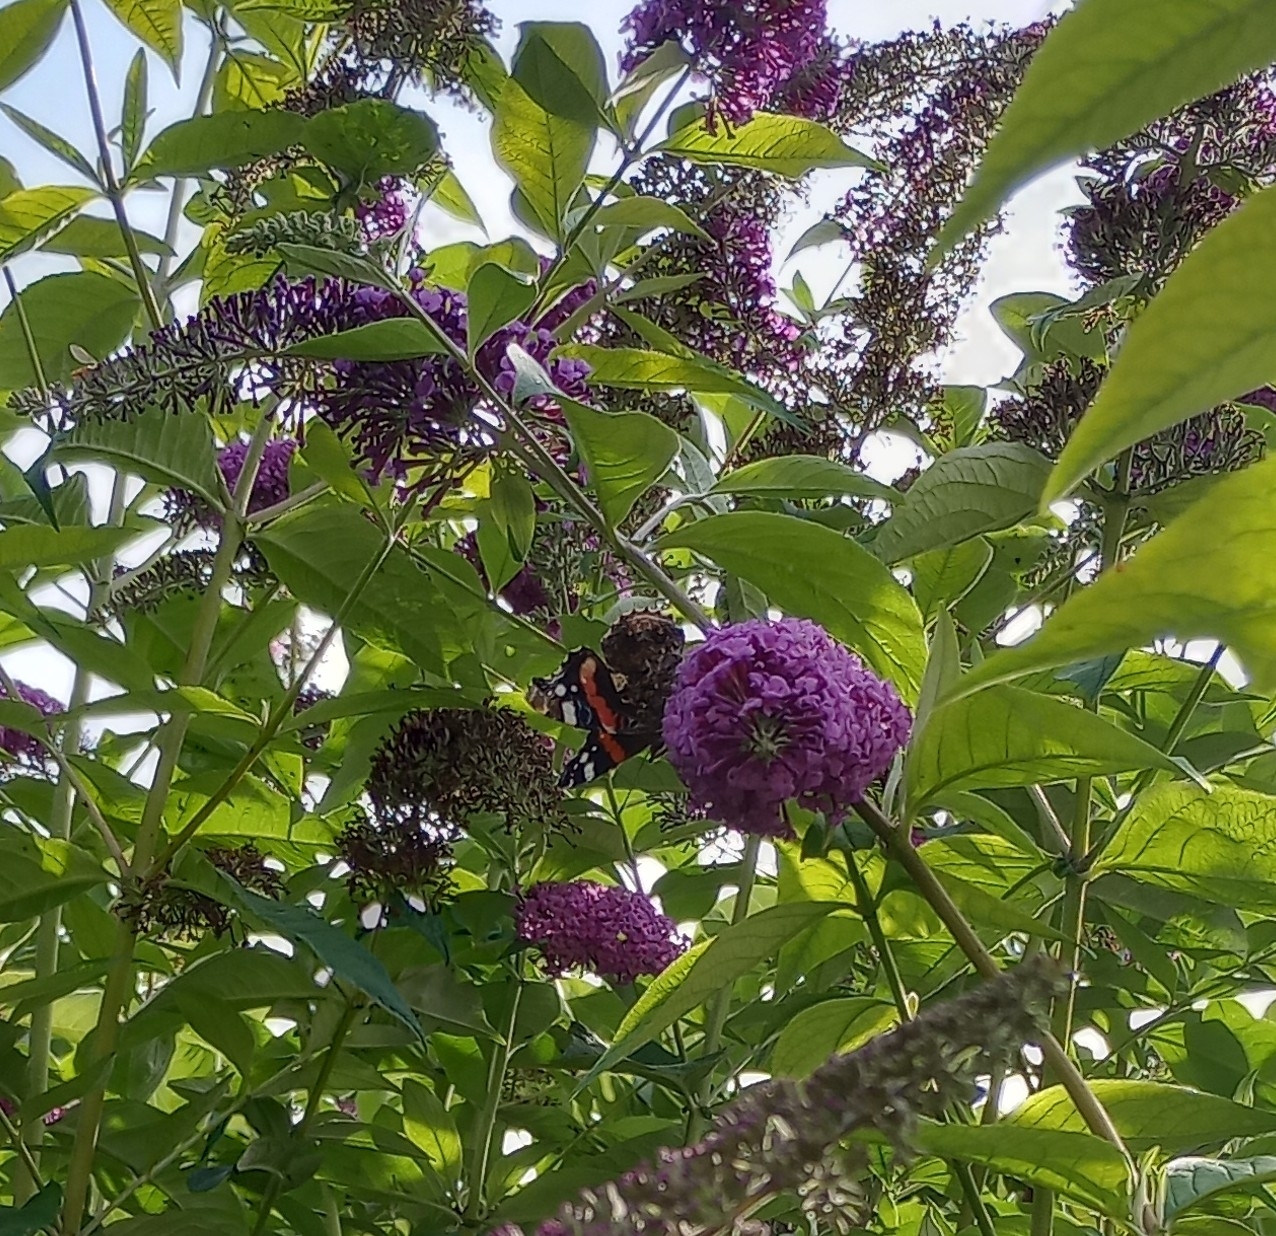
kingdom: Animalia
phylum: Arthropoda
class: Insecta
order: Lepidoptera
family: Nymphalidae
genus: Vanessa
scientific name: Vanessa atalanta
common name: Red admiral
